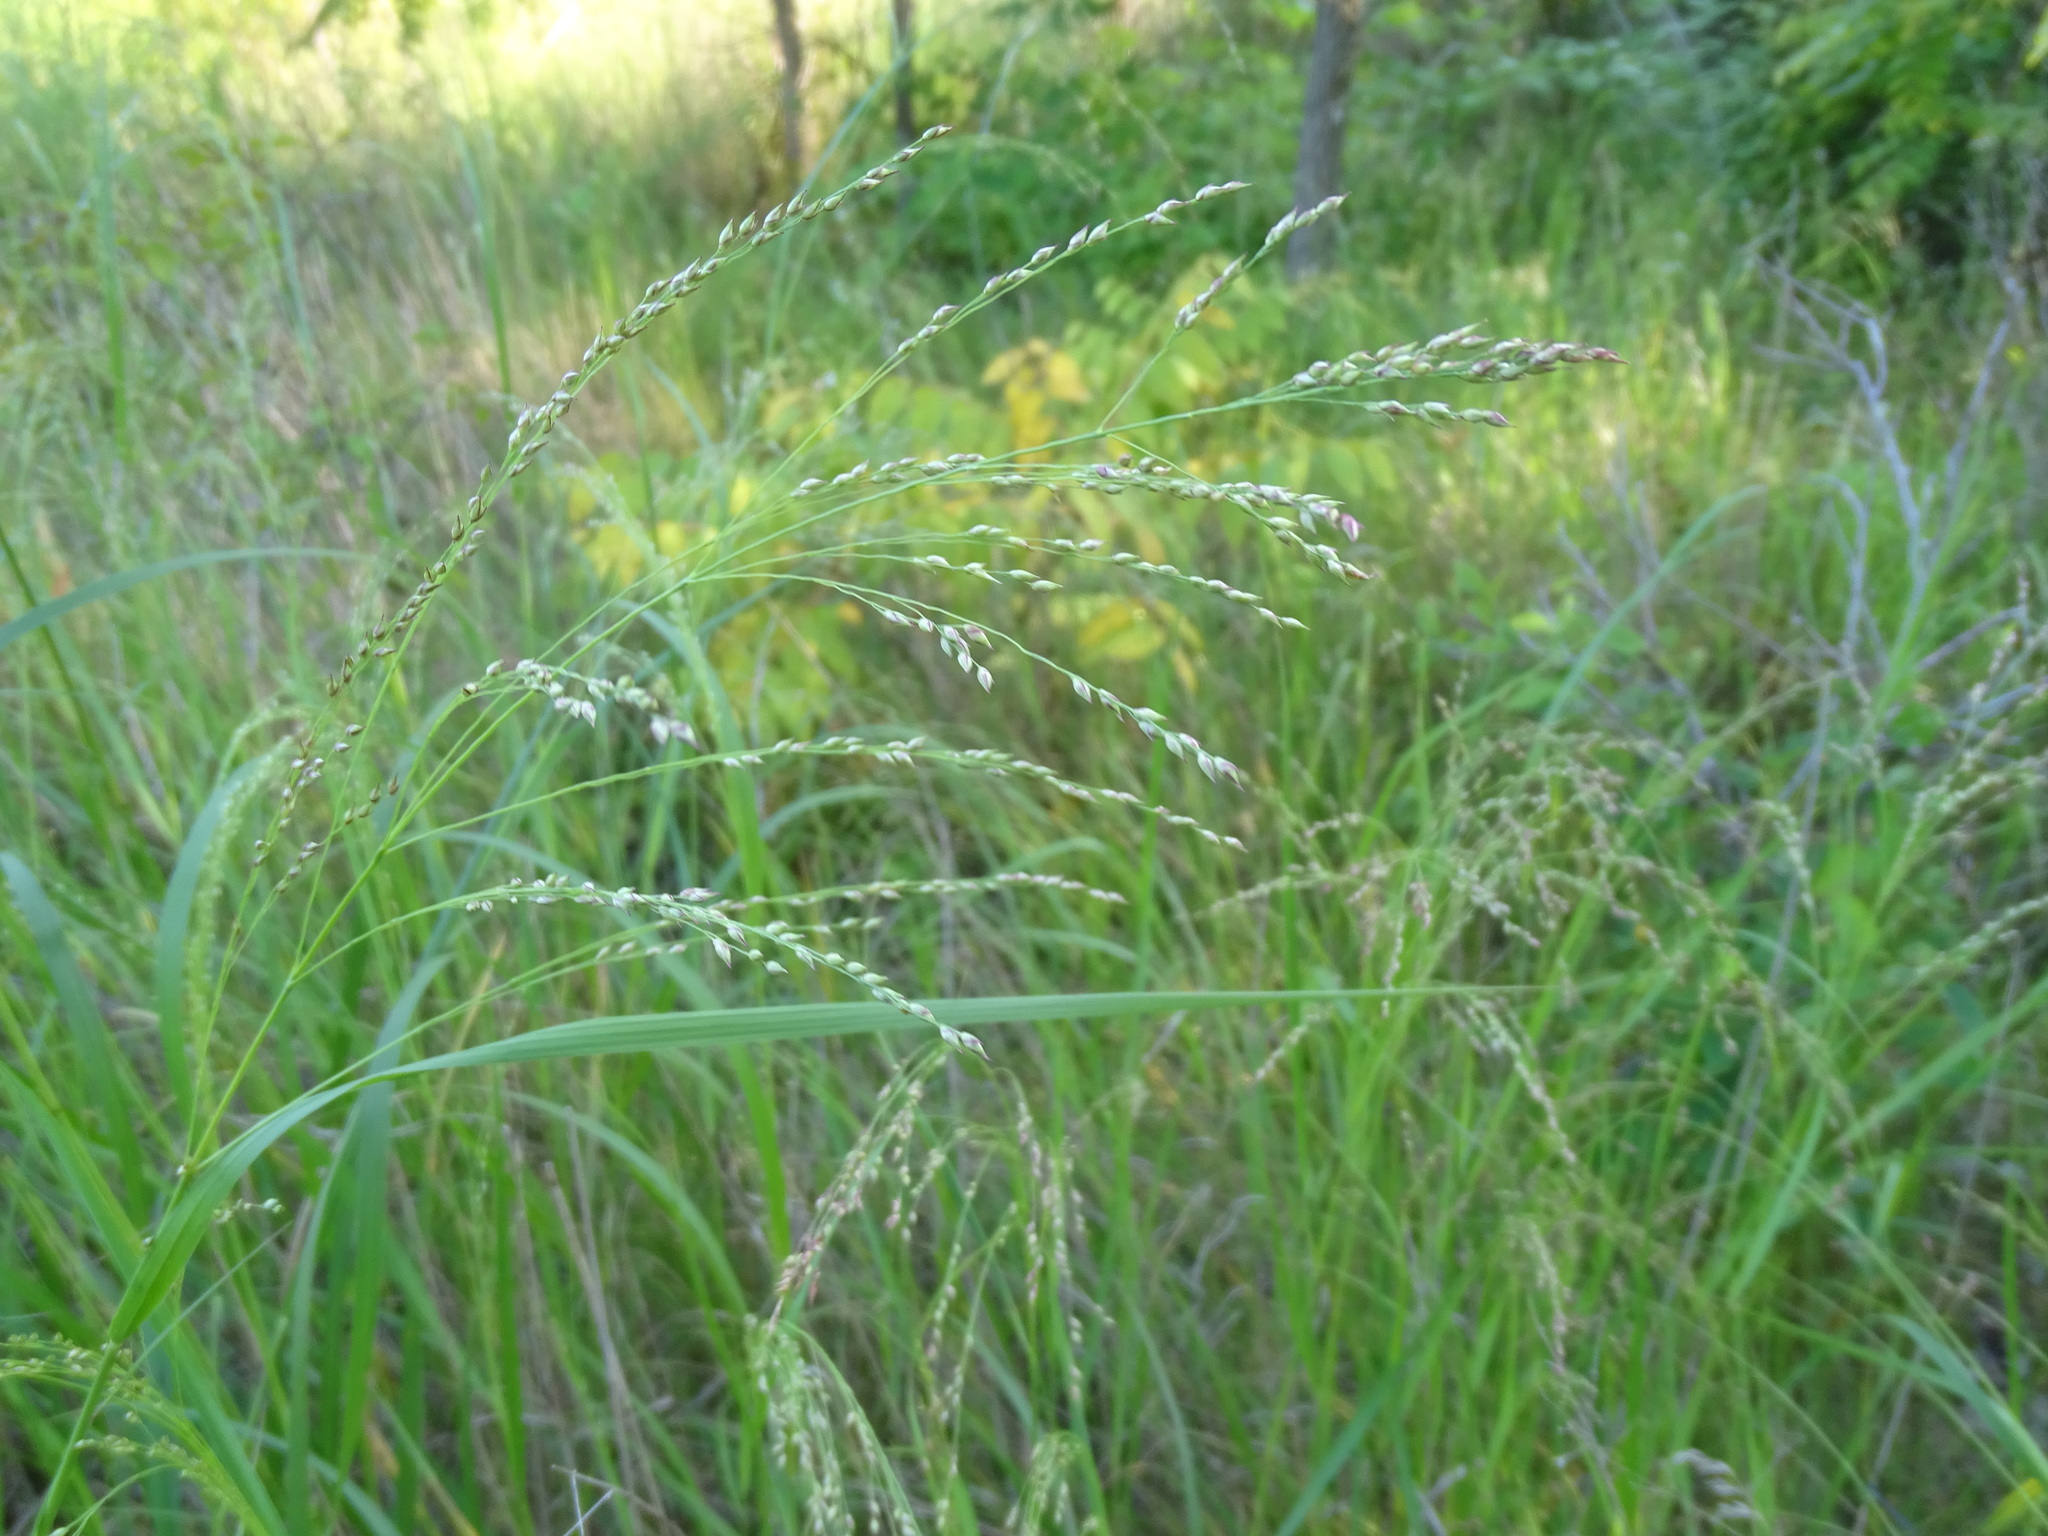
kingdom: Plantae
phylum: Tracheophyta
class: Liliopsida
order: Poales
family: Poaceae
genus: Panicum
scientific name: Panicum virgatum
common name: Switchgrass
